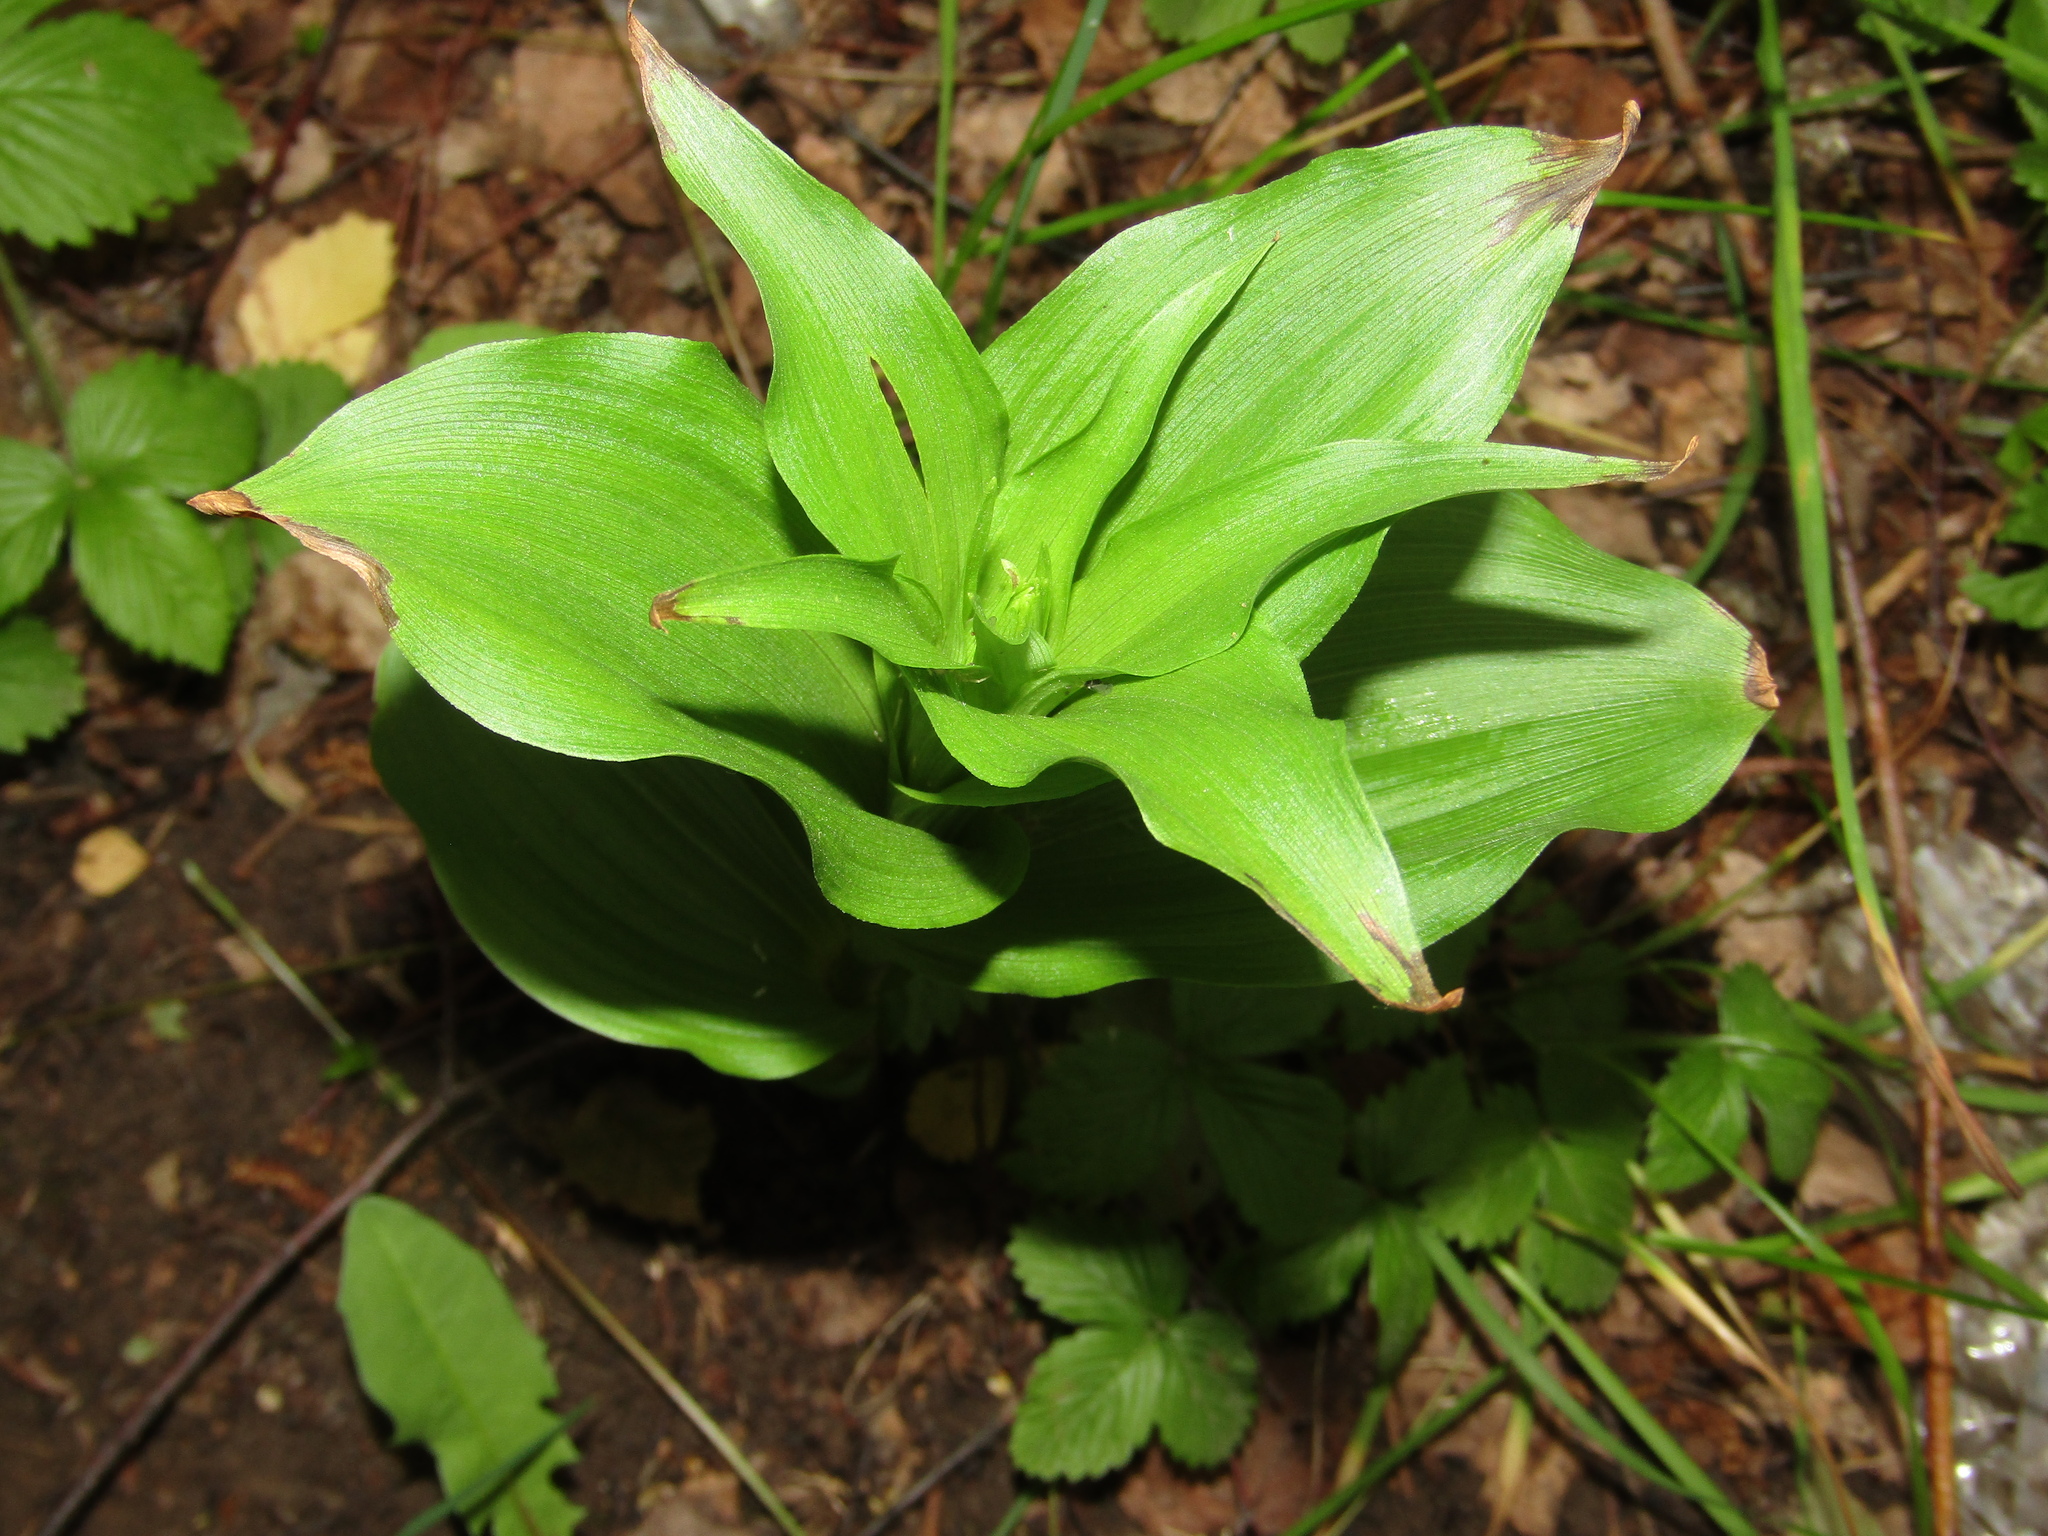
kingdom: Plantae
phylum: Tracheophyta
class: Liliopsida
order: Asparagales
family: Orchidaceae
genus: Epipactis
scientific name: Epipactis helleborine
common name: Broad-leaved helleborine
